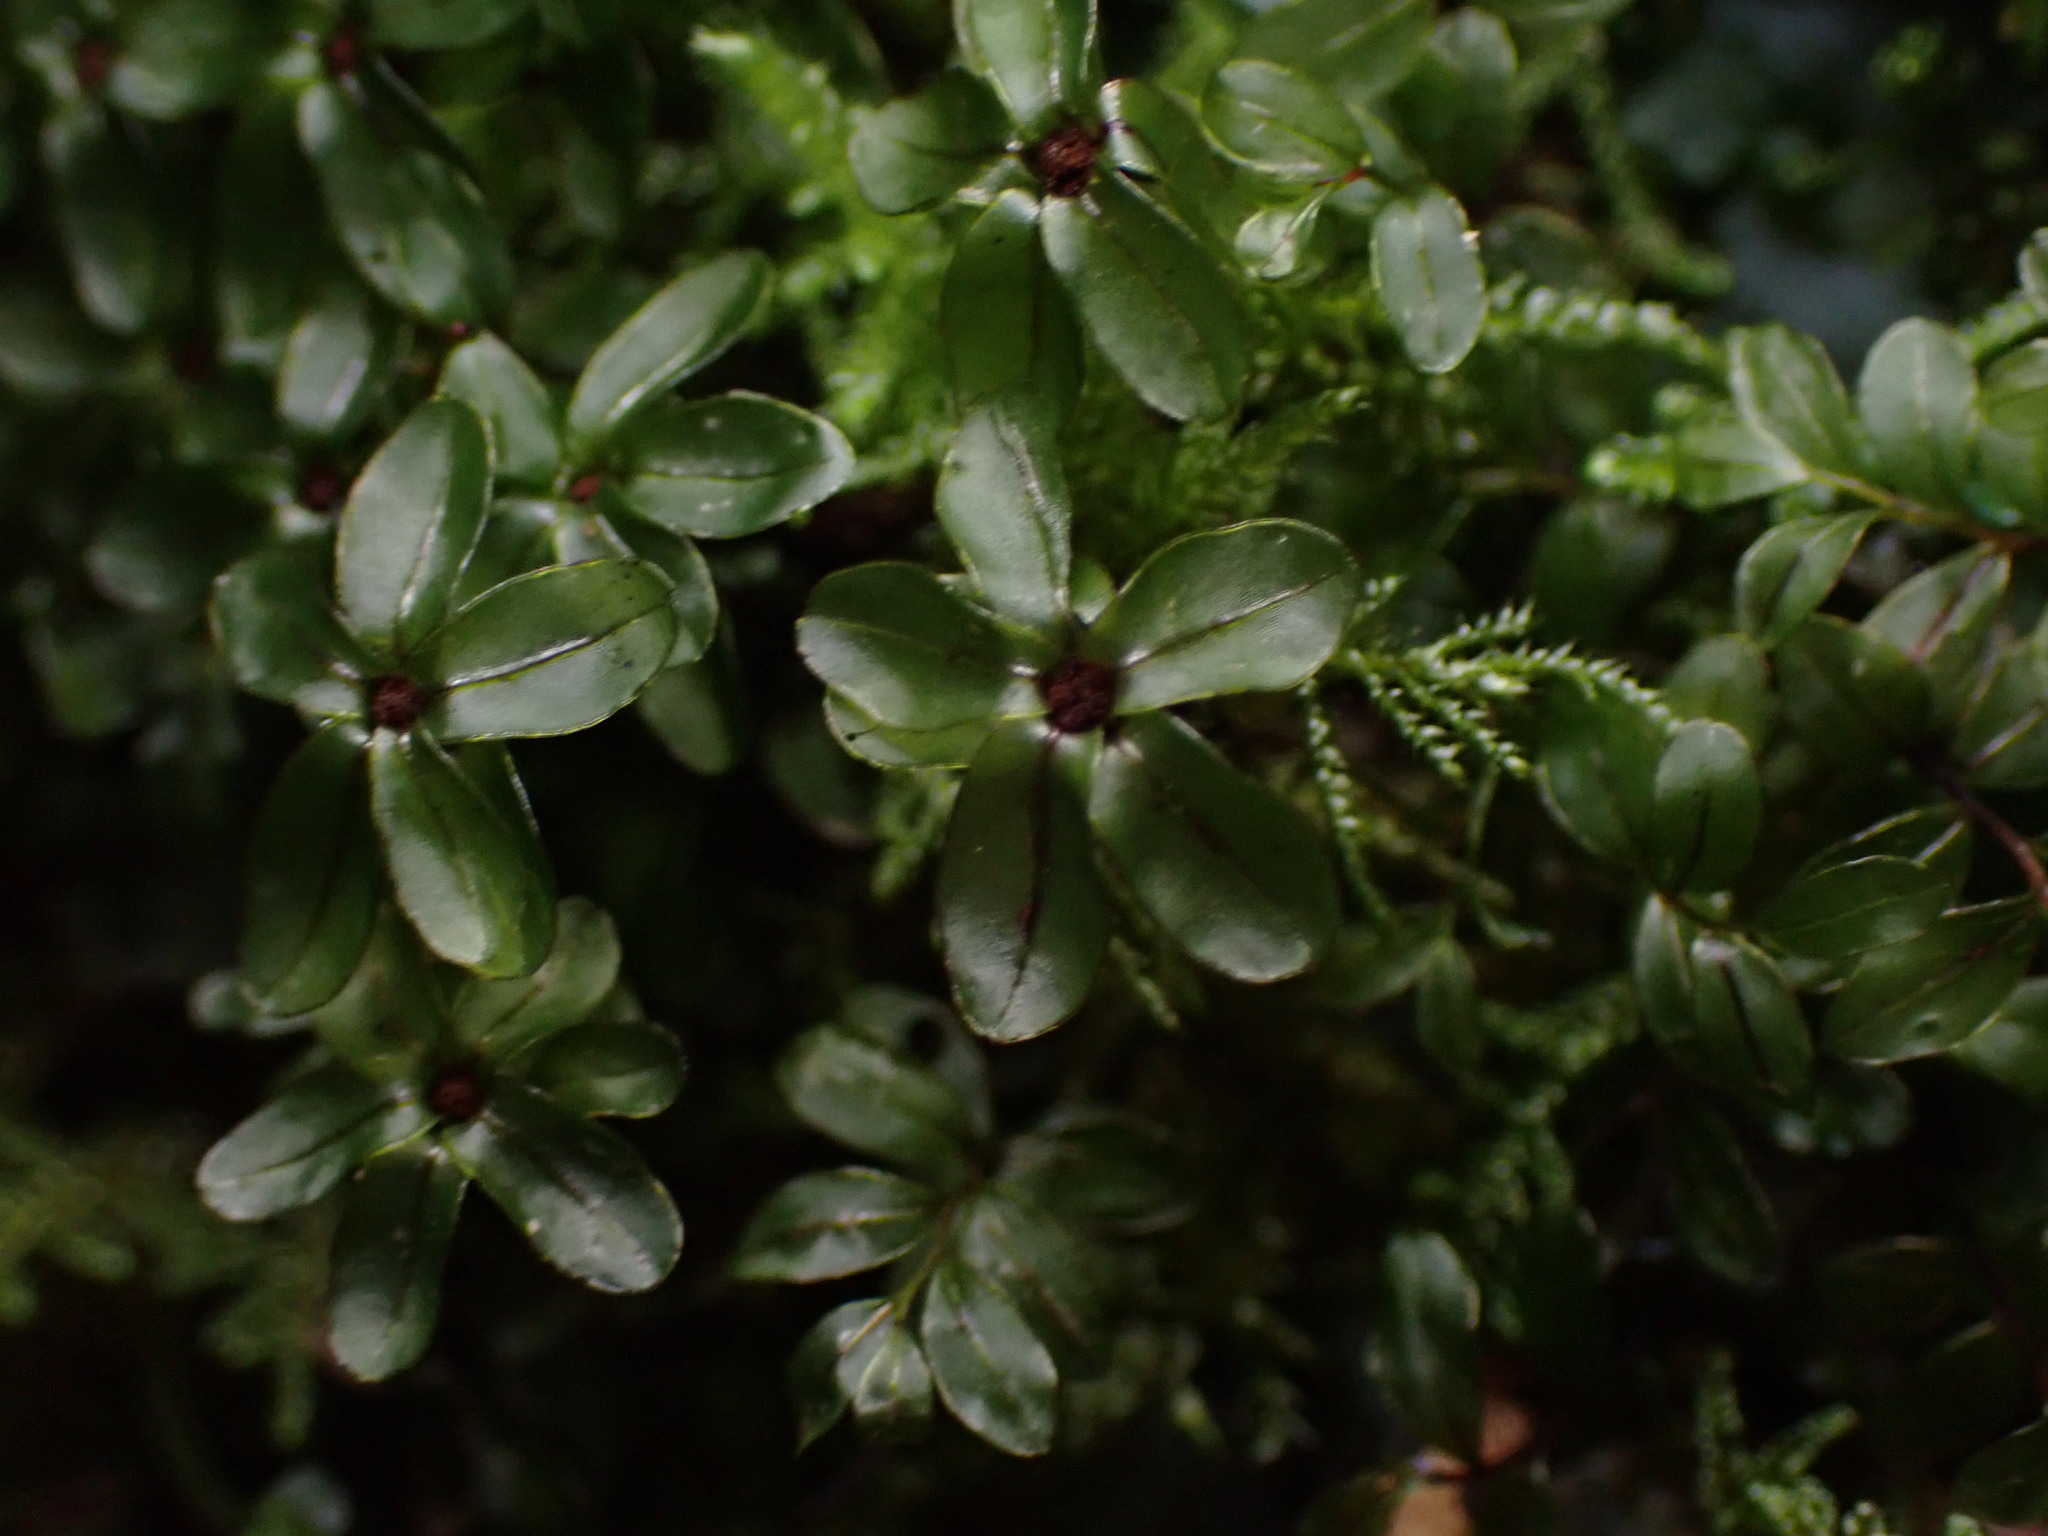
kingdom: Plantae
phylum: Bryophyta
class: Bryopsida
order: Bryales
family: Mniaceae
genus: Rhizomnium
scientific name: Rhizomnium glabrescens
